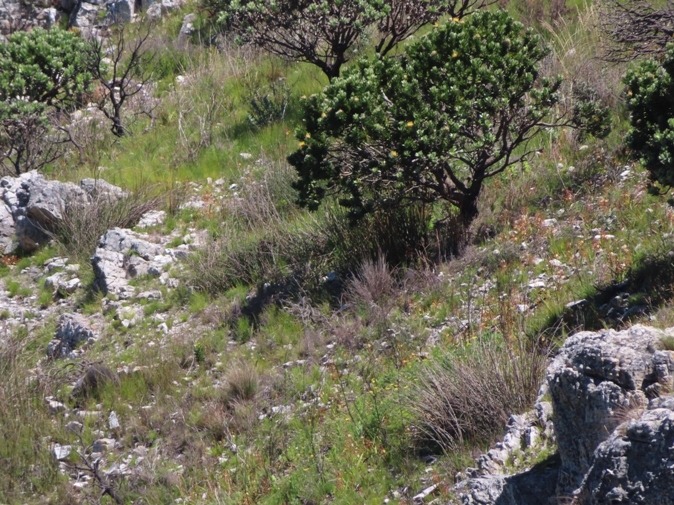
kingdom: Plantae
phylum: Tracheophyta
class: Magnoliopsida
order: Proteales
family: Proteaceae
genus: Leucospermum
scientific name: Leucospermum conocarpodendron
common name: Tree pincushion
